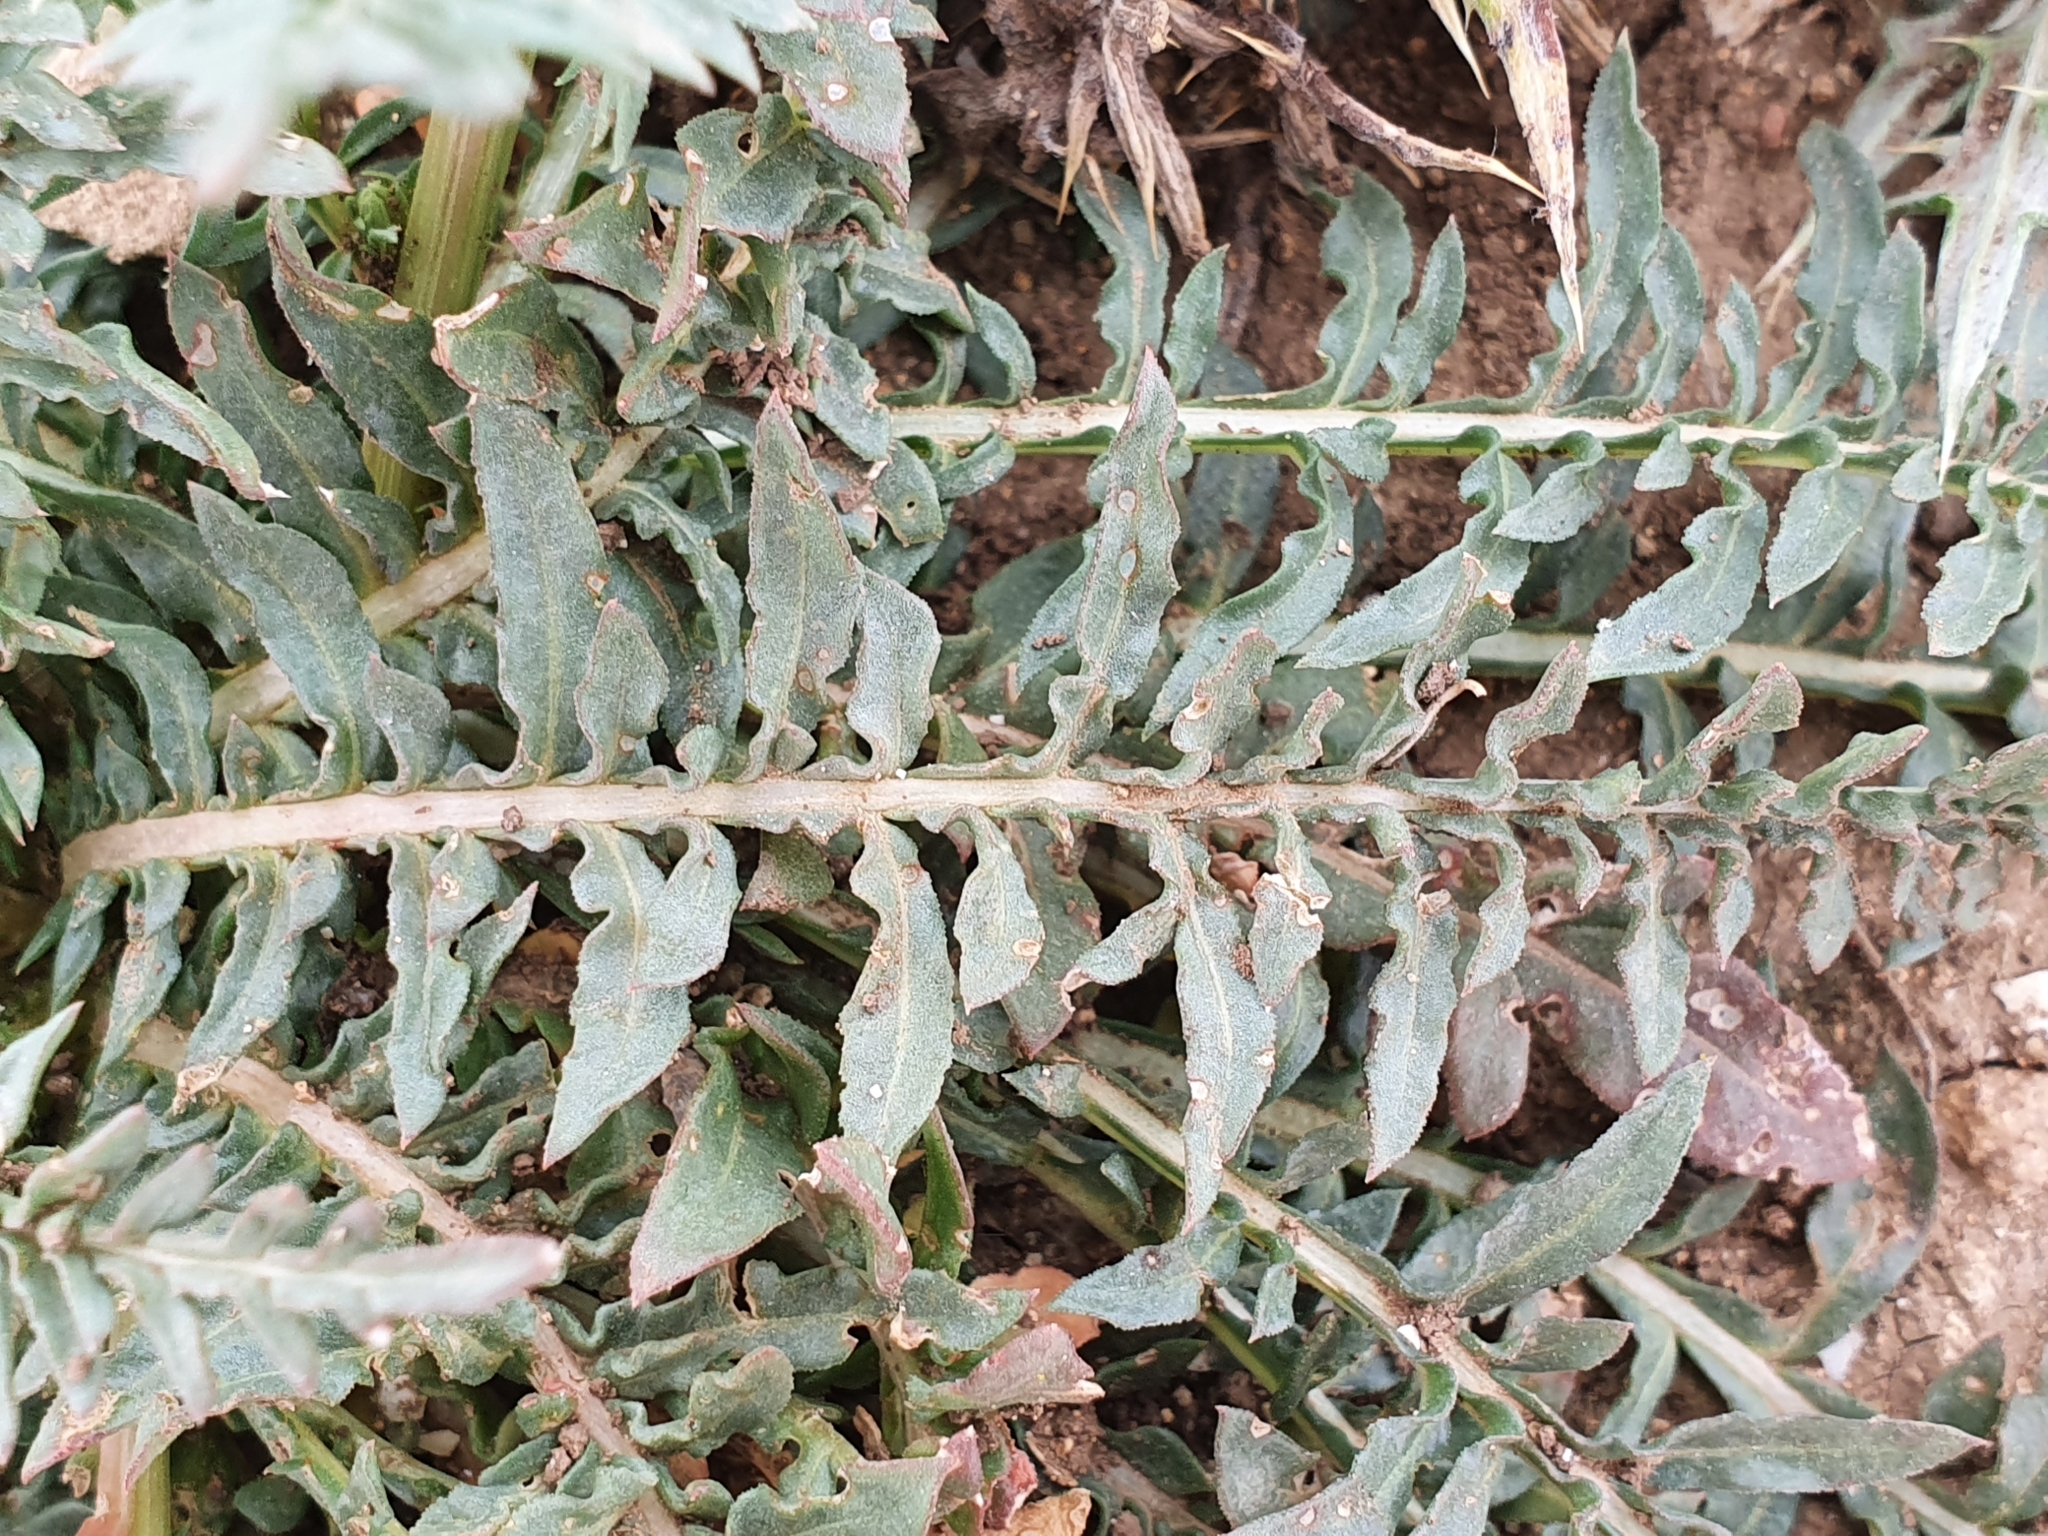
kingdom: Plantae
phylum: Tracheophyta
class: Magnoliopsida
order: Brassicales
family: Resedaceae
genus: Reseda
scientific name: Reseda alba
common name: White mignonette
